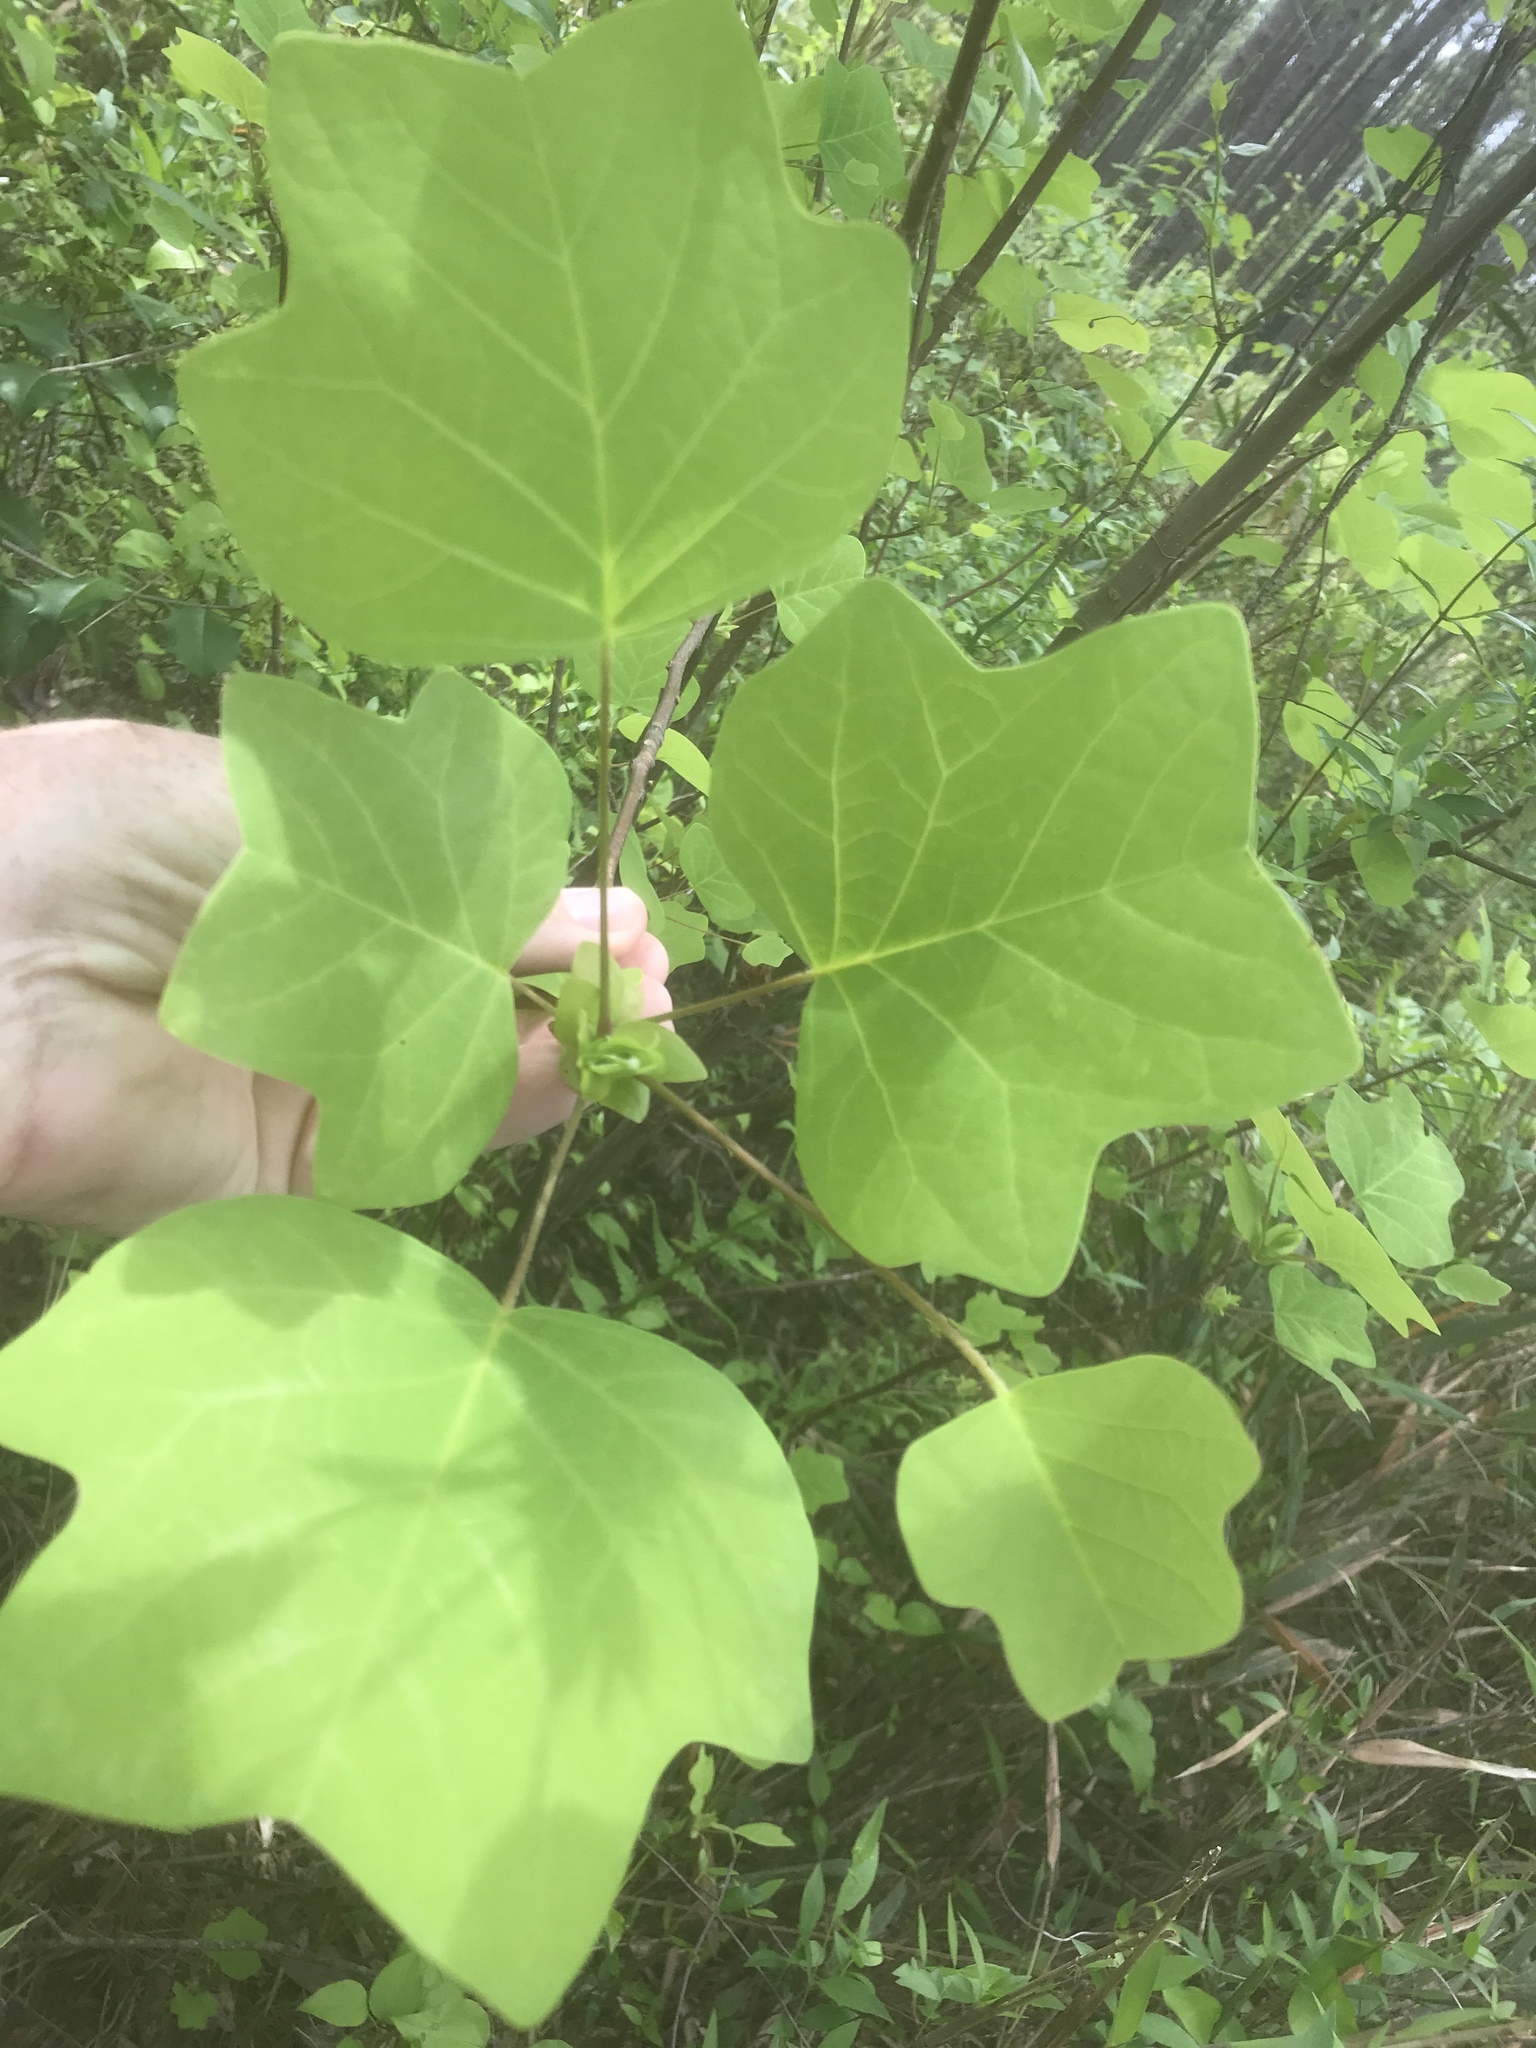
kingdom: Plantae
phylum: Tracheophyta
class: Magnoliopsida
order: Magnoliales
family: Magnoliaceae
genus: Liriodendron
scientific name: Liriodendron tulipifera
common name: Tulip tree
